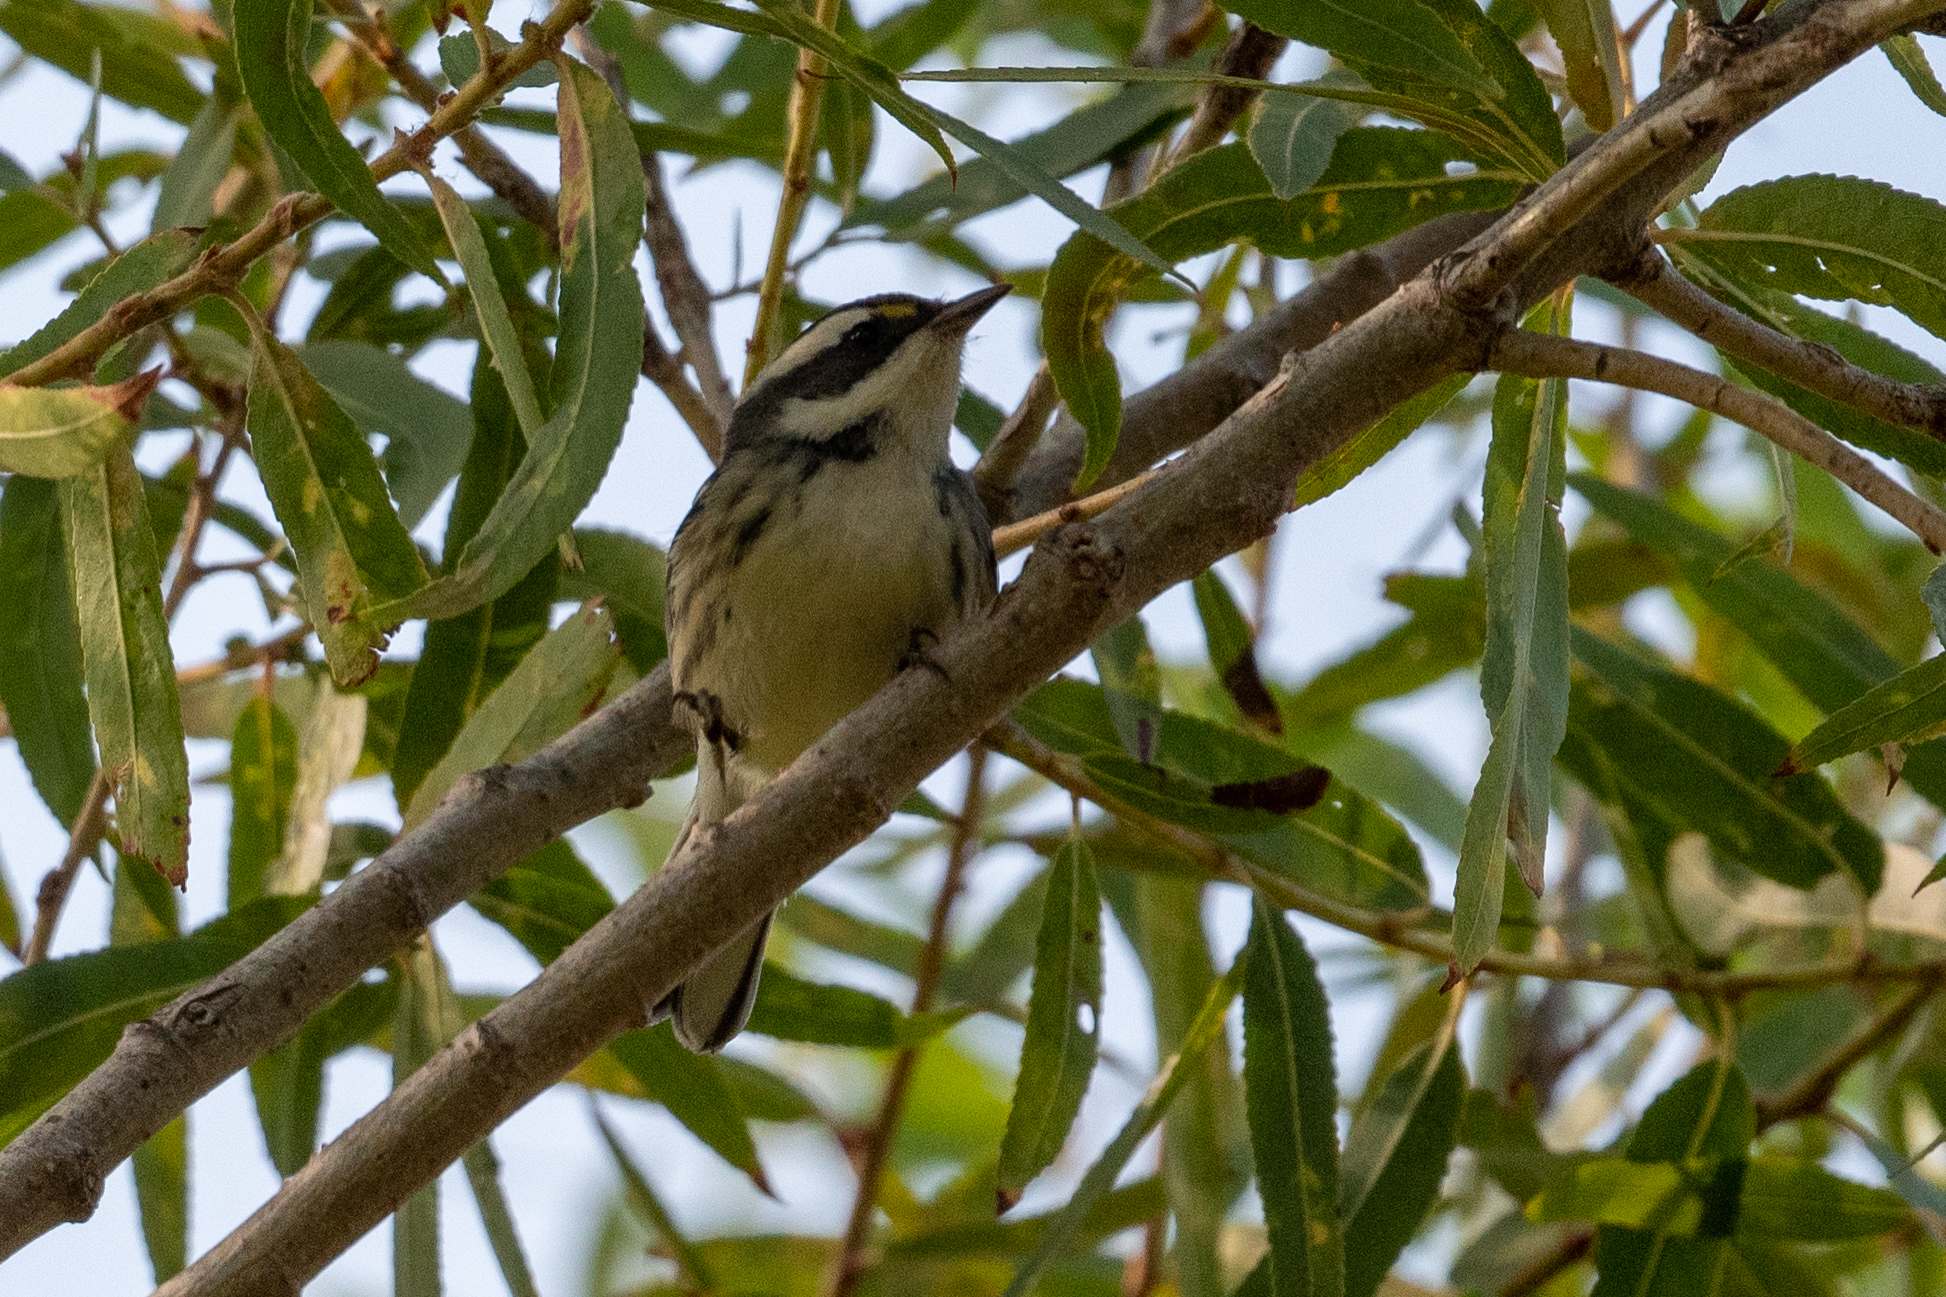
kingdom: Animalia
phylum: Chordata
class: Aves
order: Passeriformes
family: Parulidae
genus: Setophaga
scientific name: Setophaga nigrescens
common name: Black-throated gray warbler
